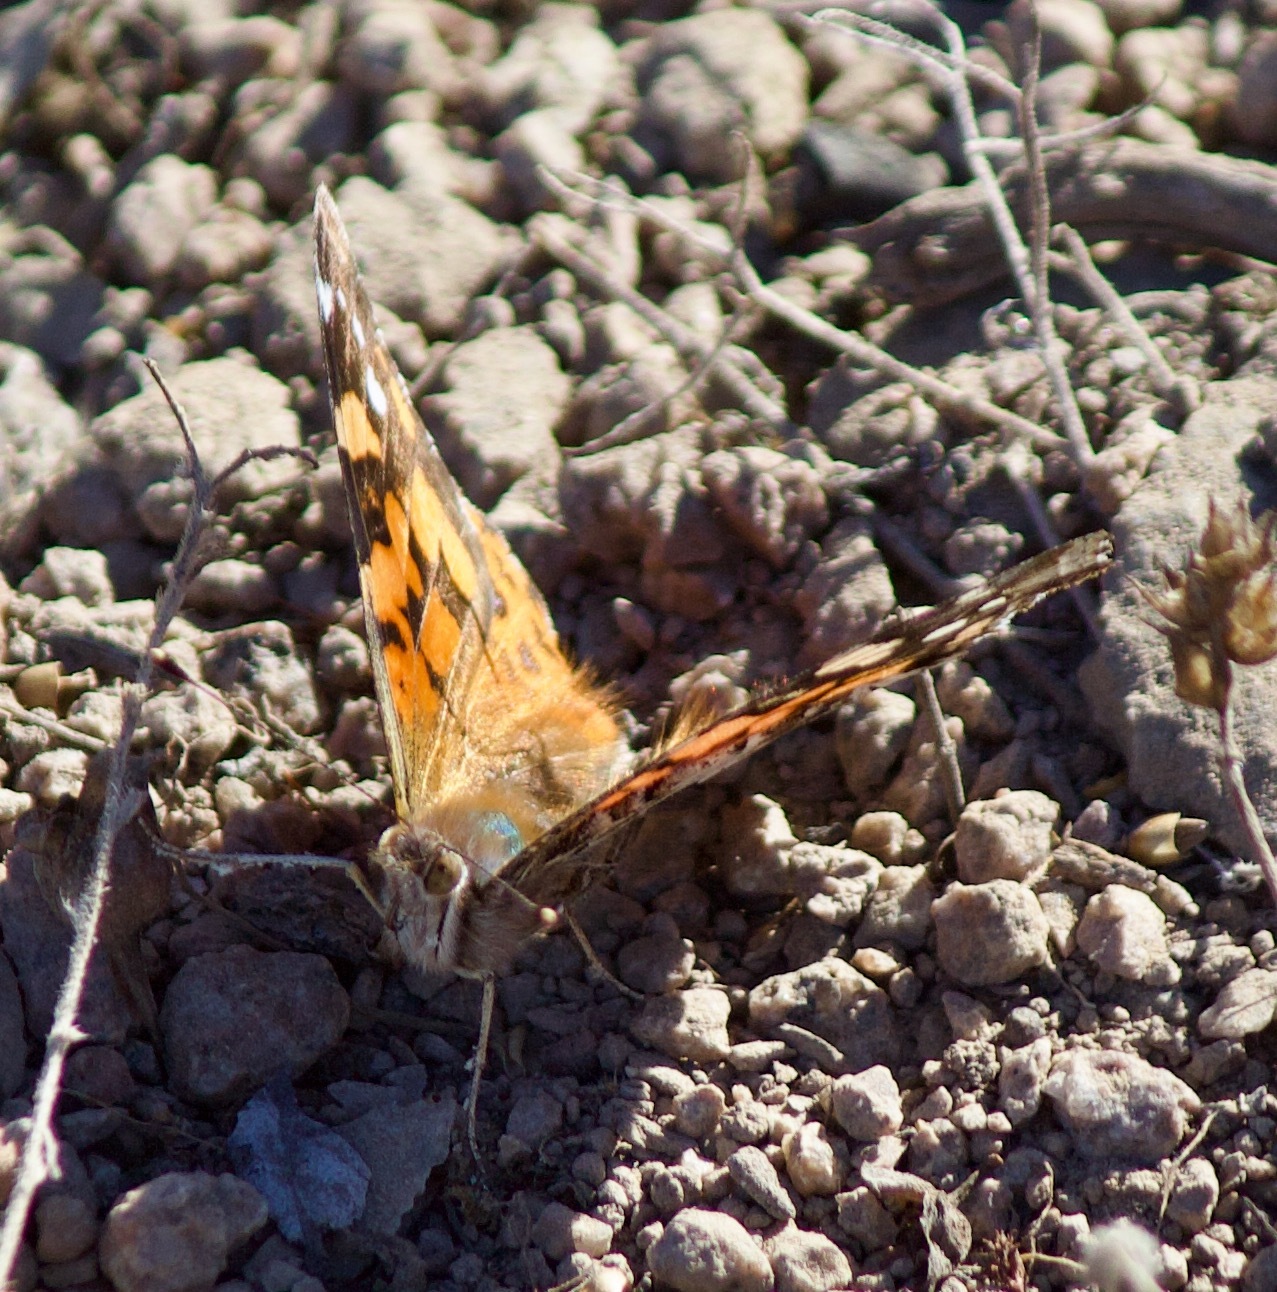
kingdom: Animalia
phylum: Arthropoda
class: Insecta
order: Lepidoptera
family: Nymphalidae
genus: Vanessa
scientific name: Vanessa carye
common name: Subtropical lady
